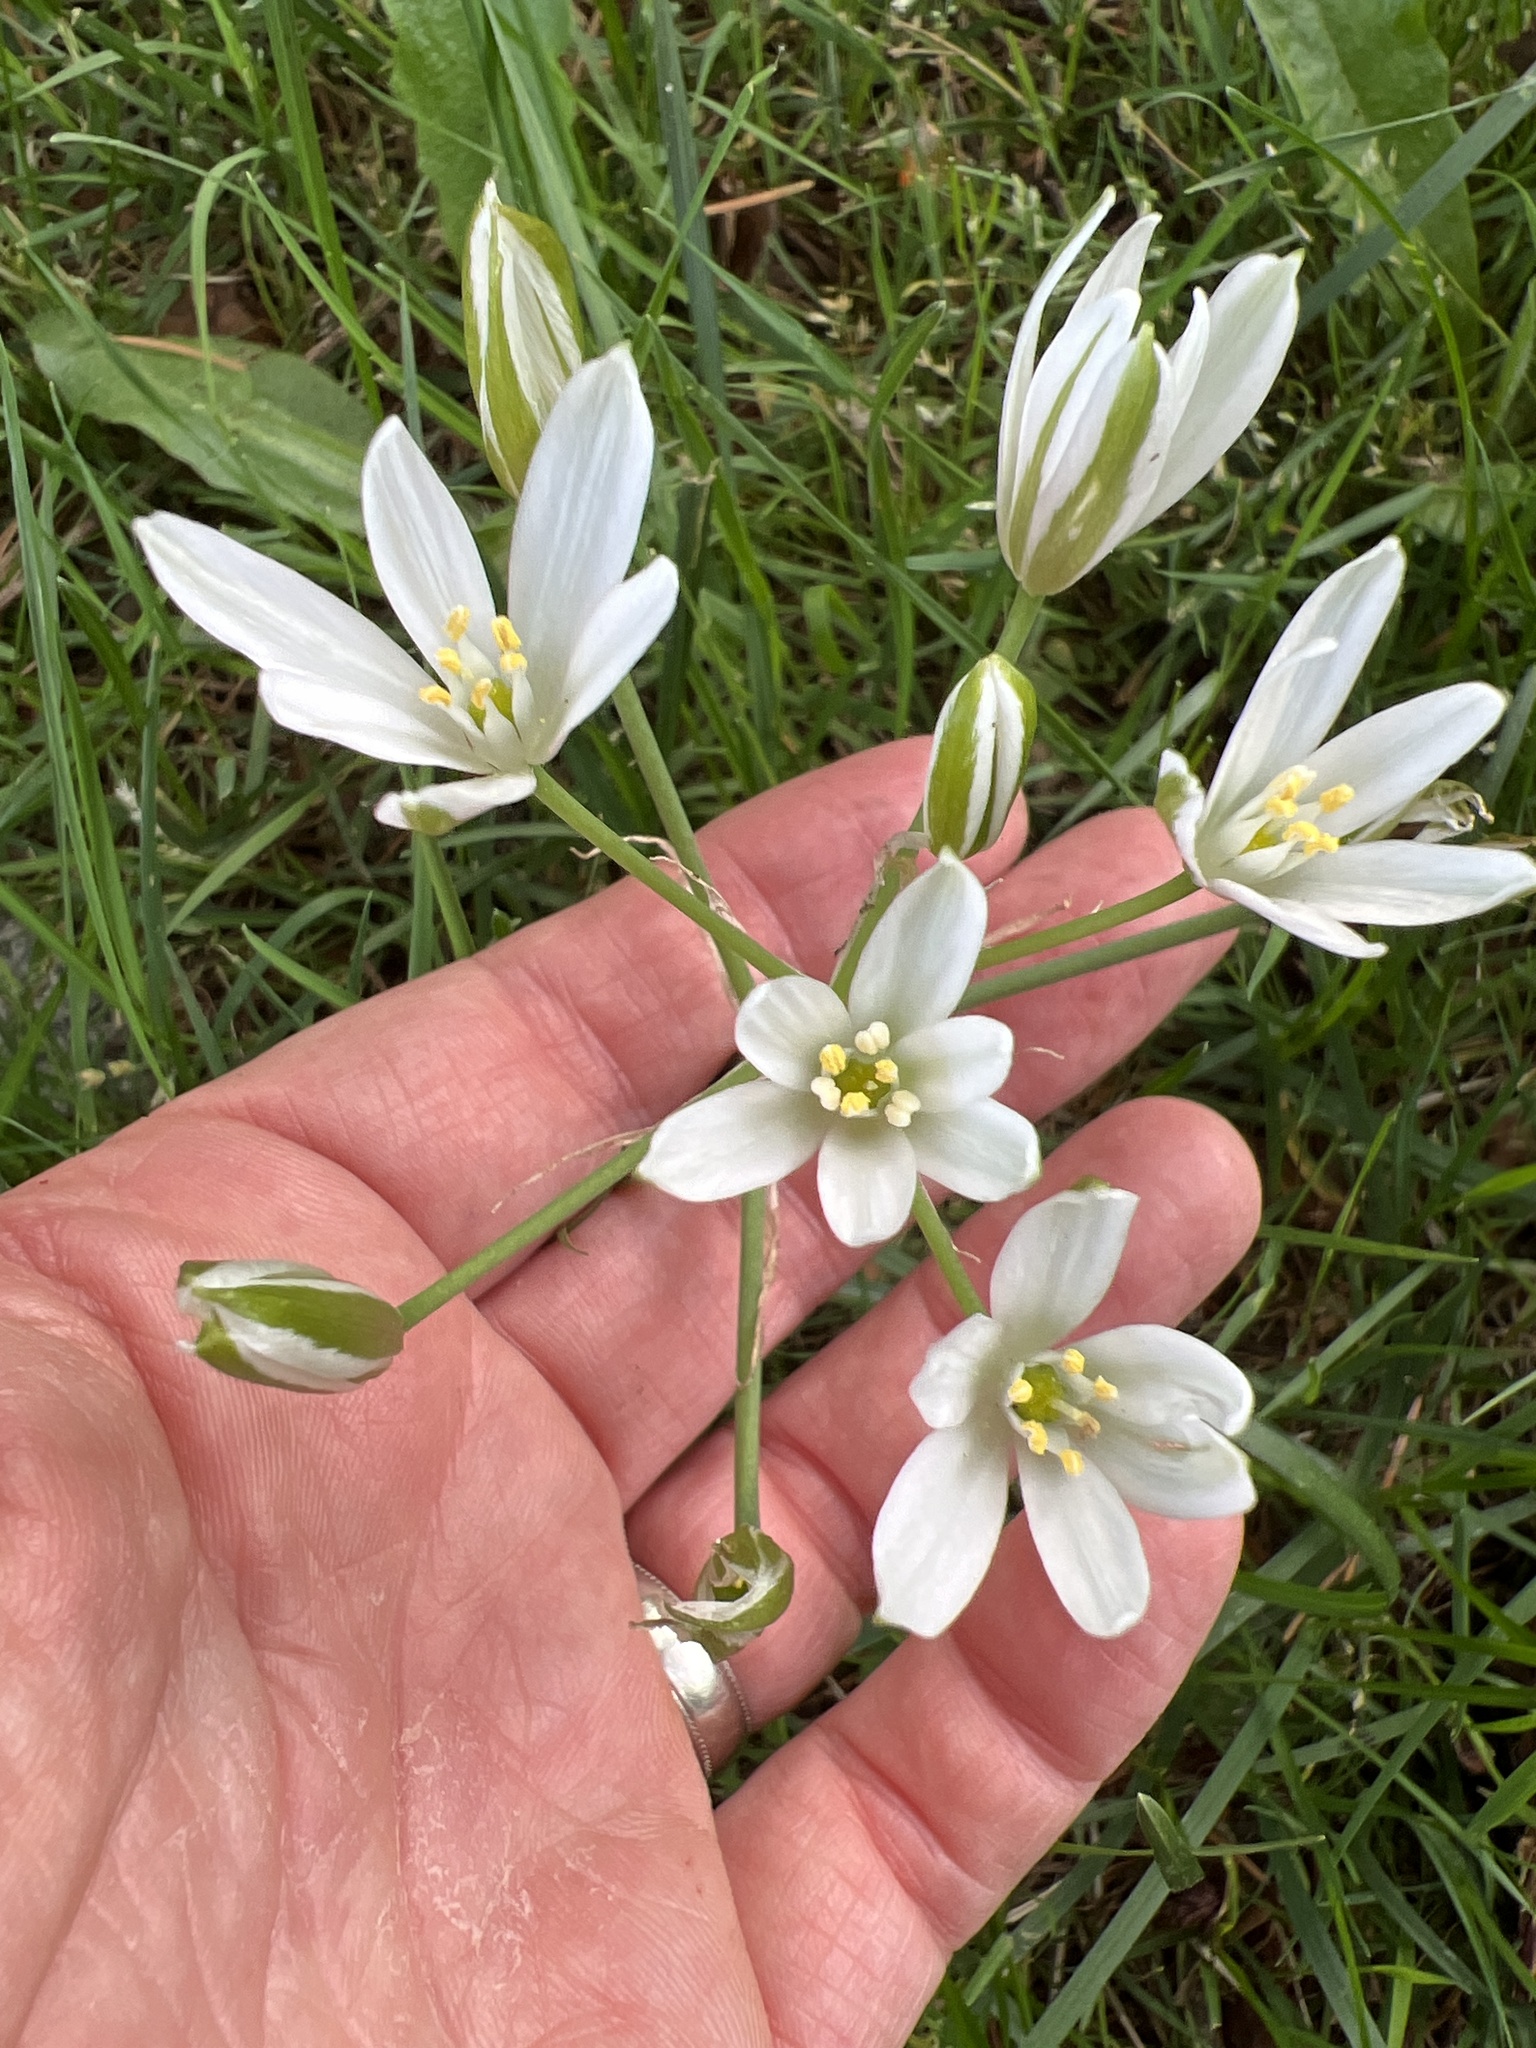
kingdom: Plantae
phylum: Tracheophyta
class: Liliopsida
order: Asparagales
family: Asparagaceae
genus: Ornithogalum
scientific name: Ornithogalum umbellatum
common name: Garden star-of-bethlehem
